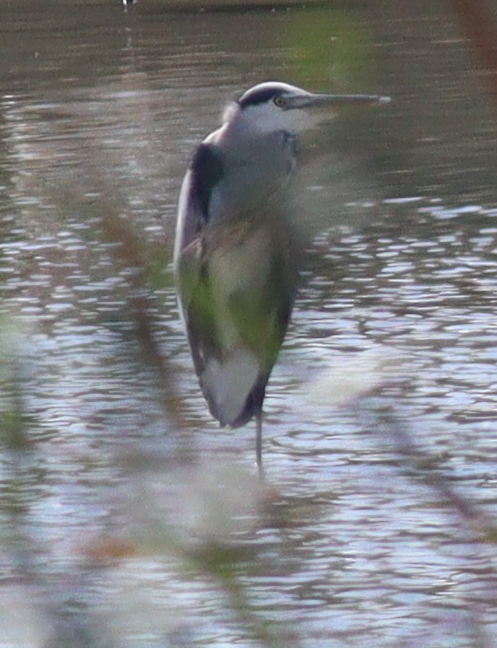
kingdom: Animalia
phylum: Chordata
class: Aves
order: Pelecaniformes
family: Ardeidae
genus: Ardea
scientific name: Ardea cinerea
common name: Grey heron
